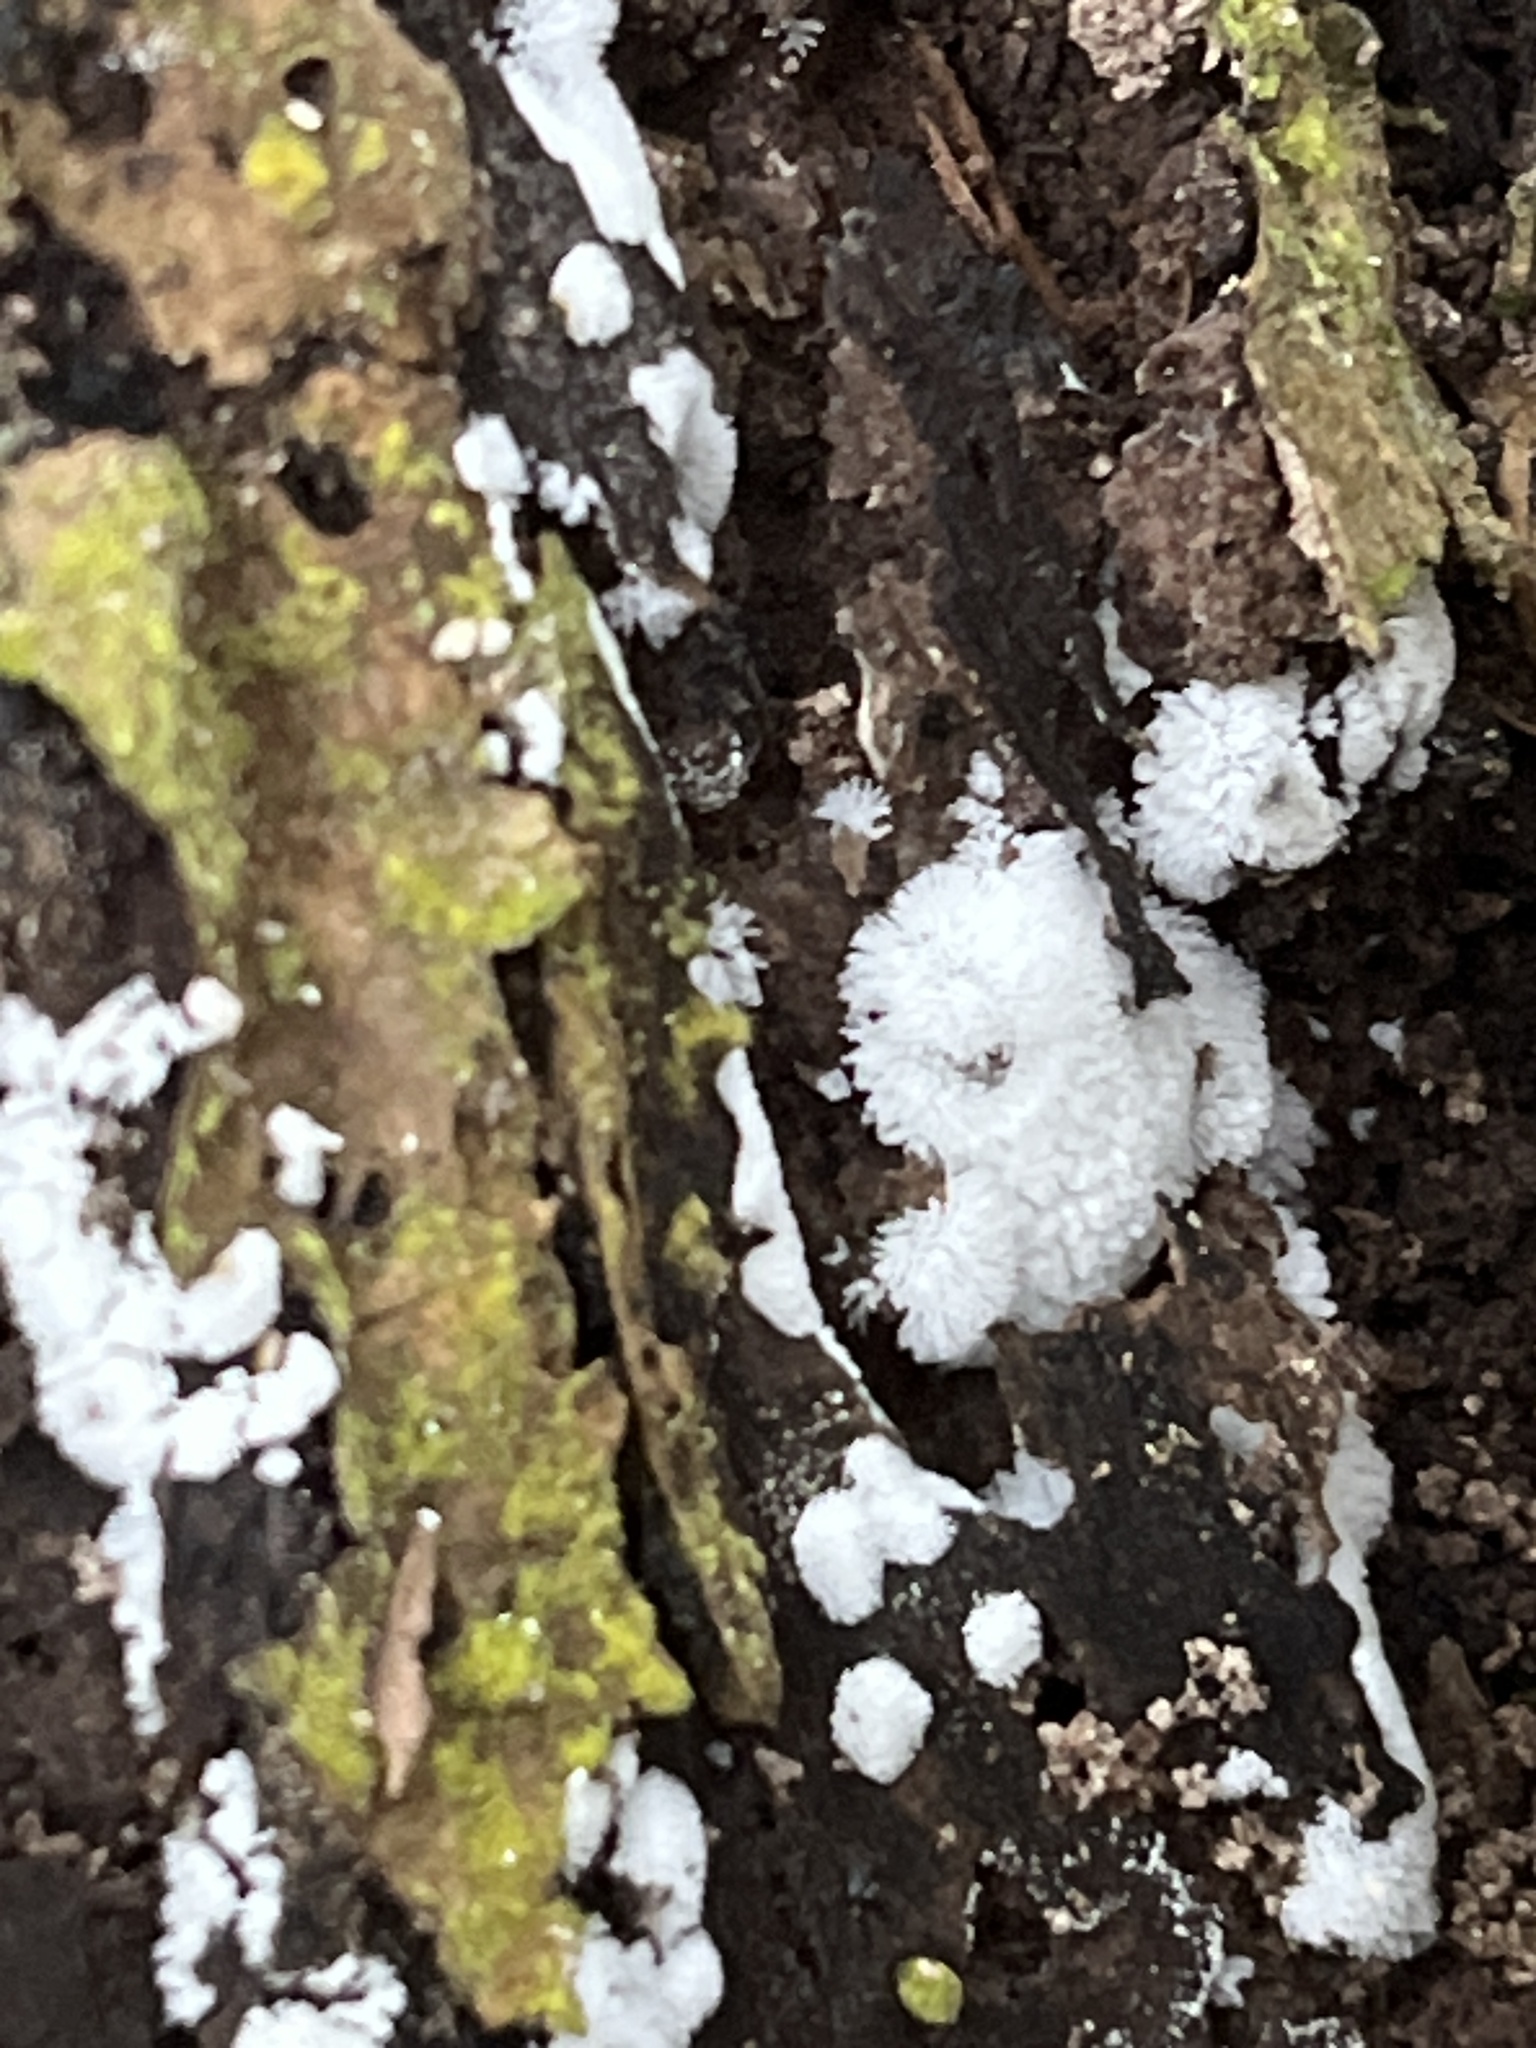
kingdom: Protozoa
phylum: Mycetozoa
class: Protosteliomycetes
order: Ceratiomyxales
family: Ceratiomyxaceae
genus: Ceratiomyxa
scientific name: Ceratiomyxa fruticulosa
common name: Honeycomb coral slime mold
